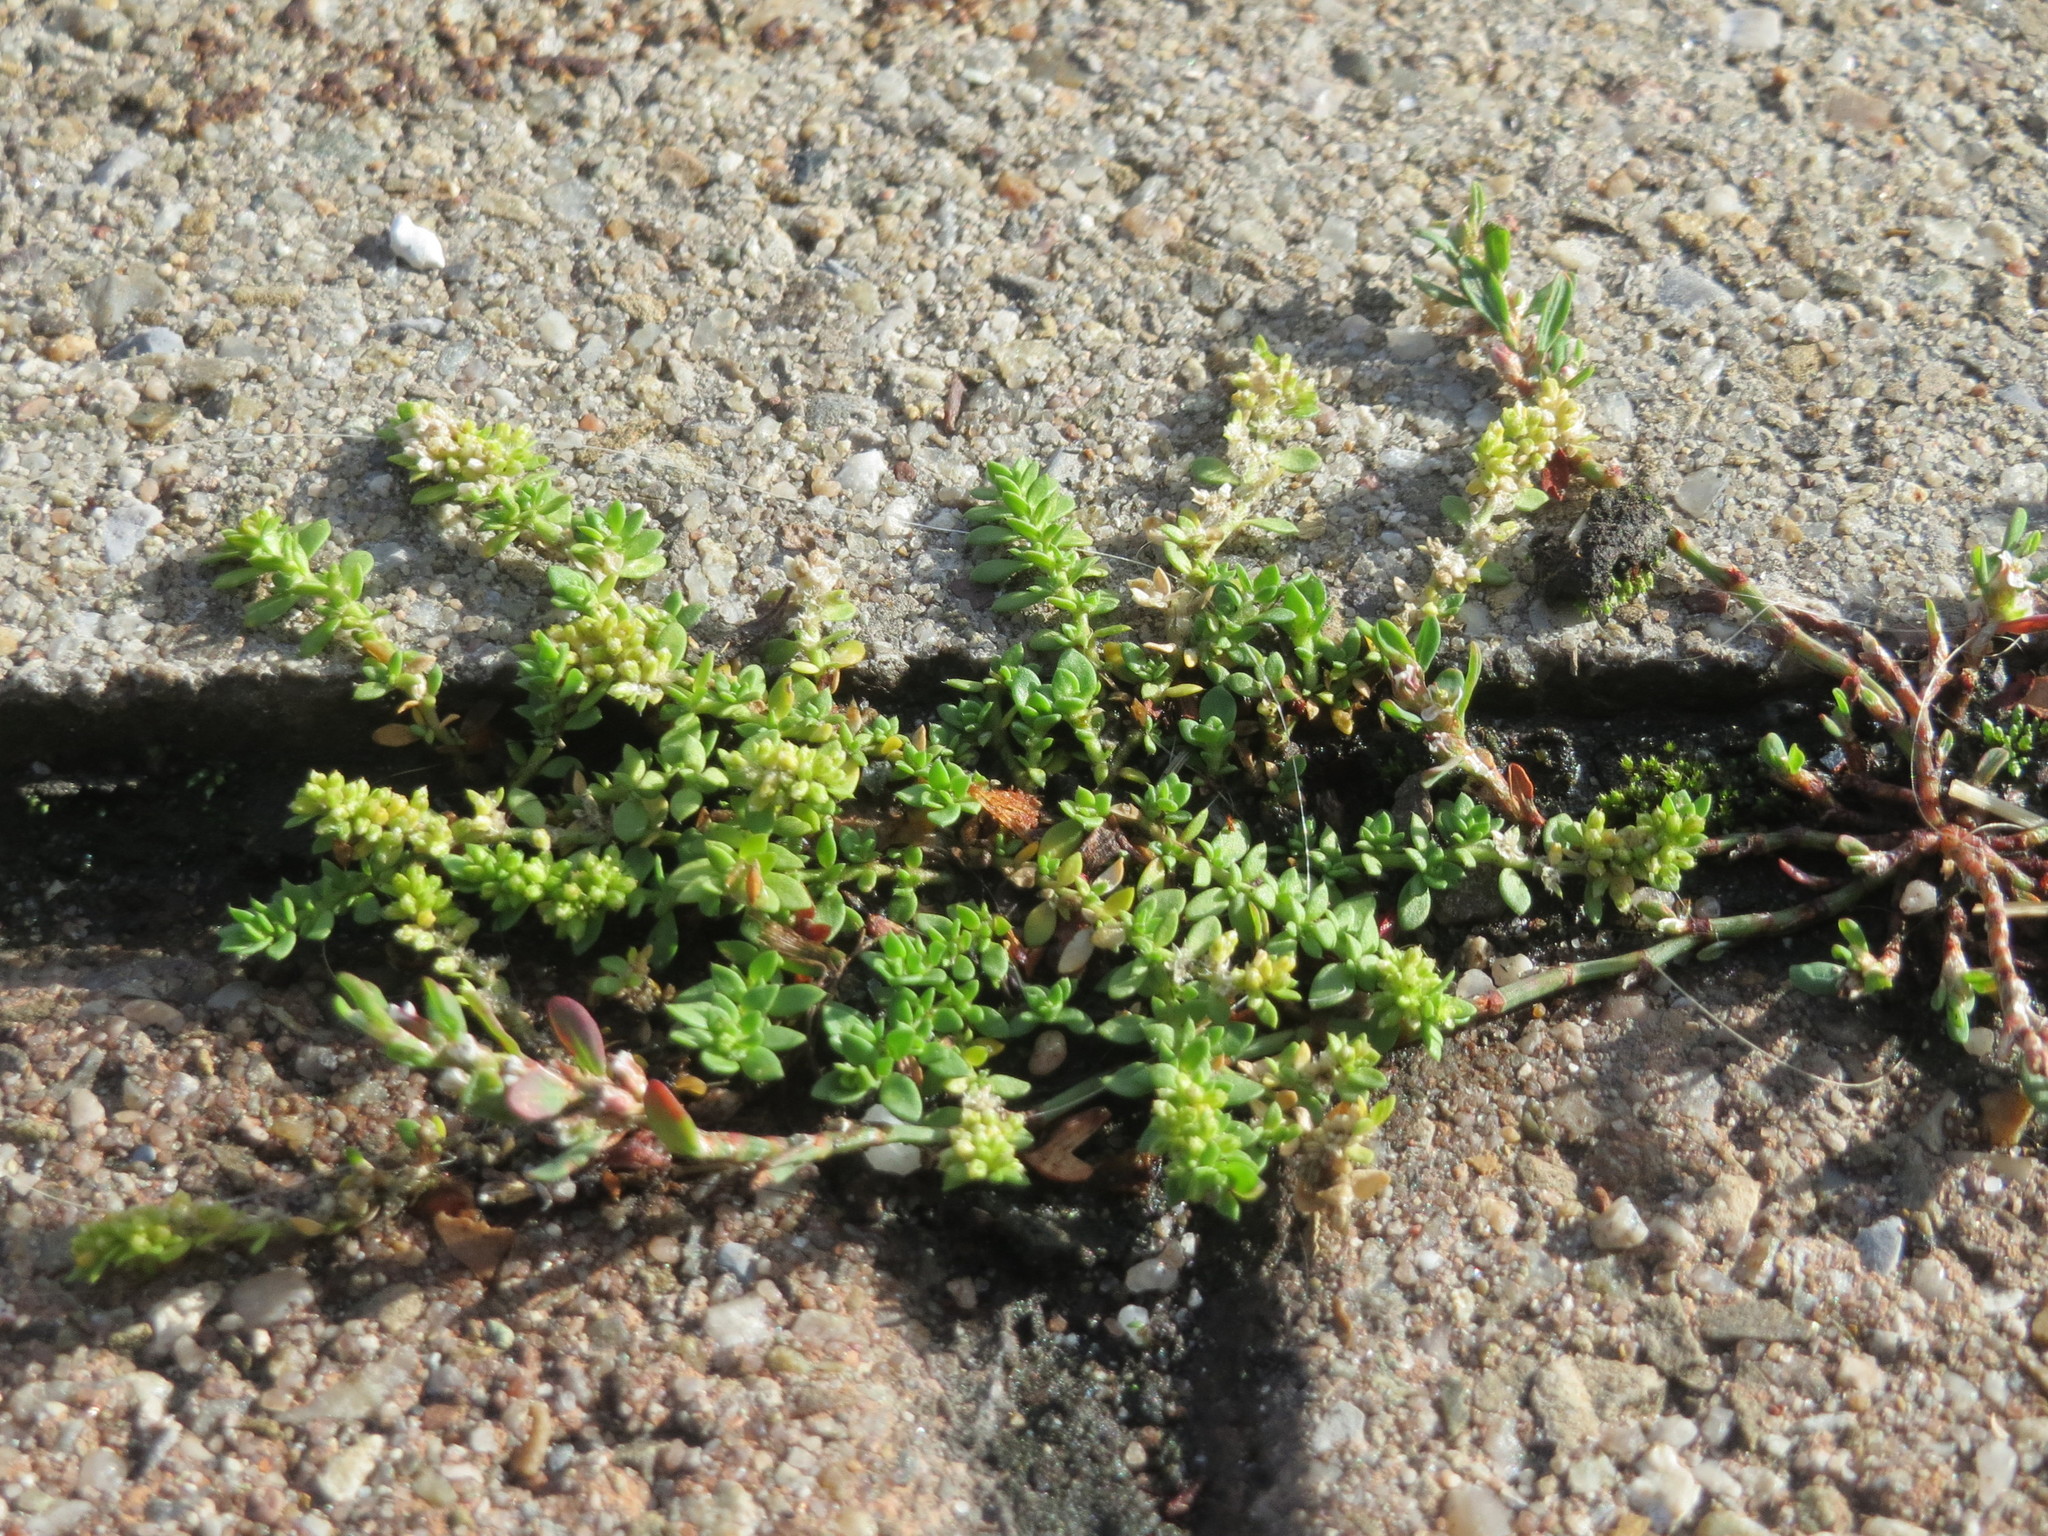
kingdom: Plantae
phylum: Tracheophyta
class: Magnoliopsida
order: Caryophyllales
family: Caryophyllaceae
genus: Herniaria
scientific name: Herniaria glabra
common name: Smooth rupturewort
